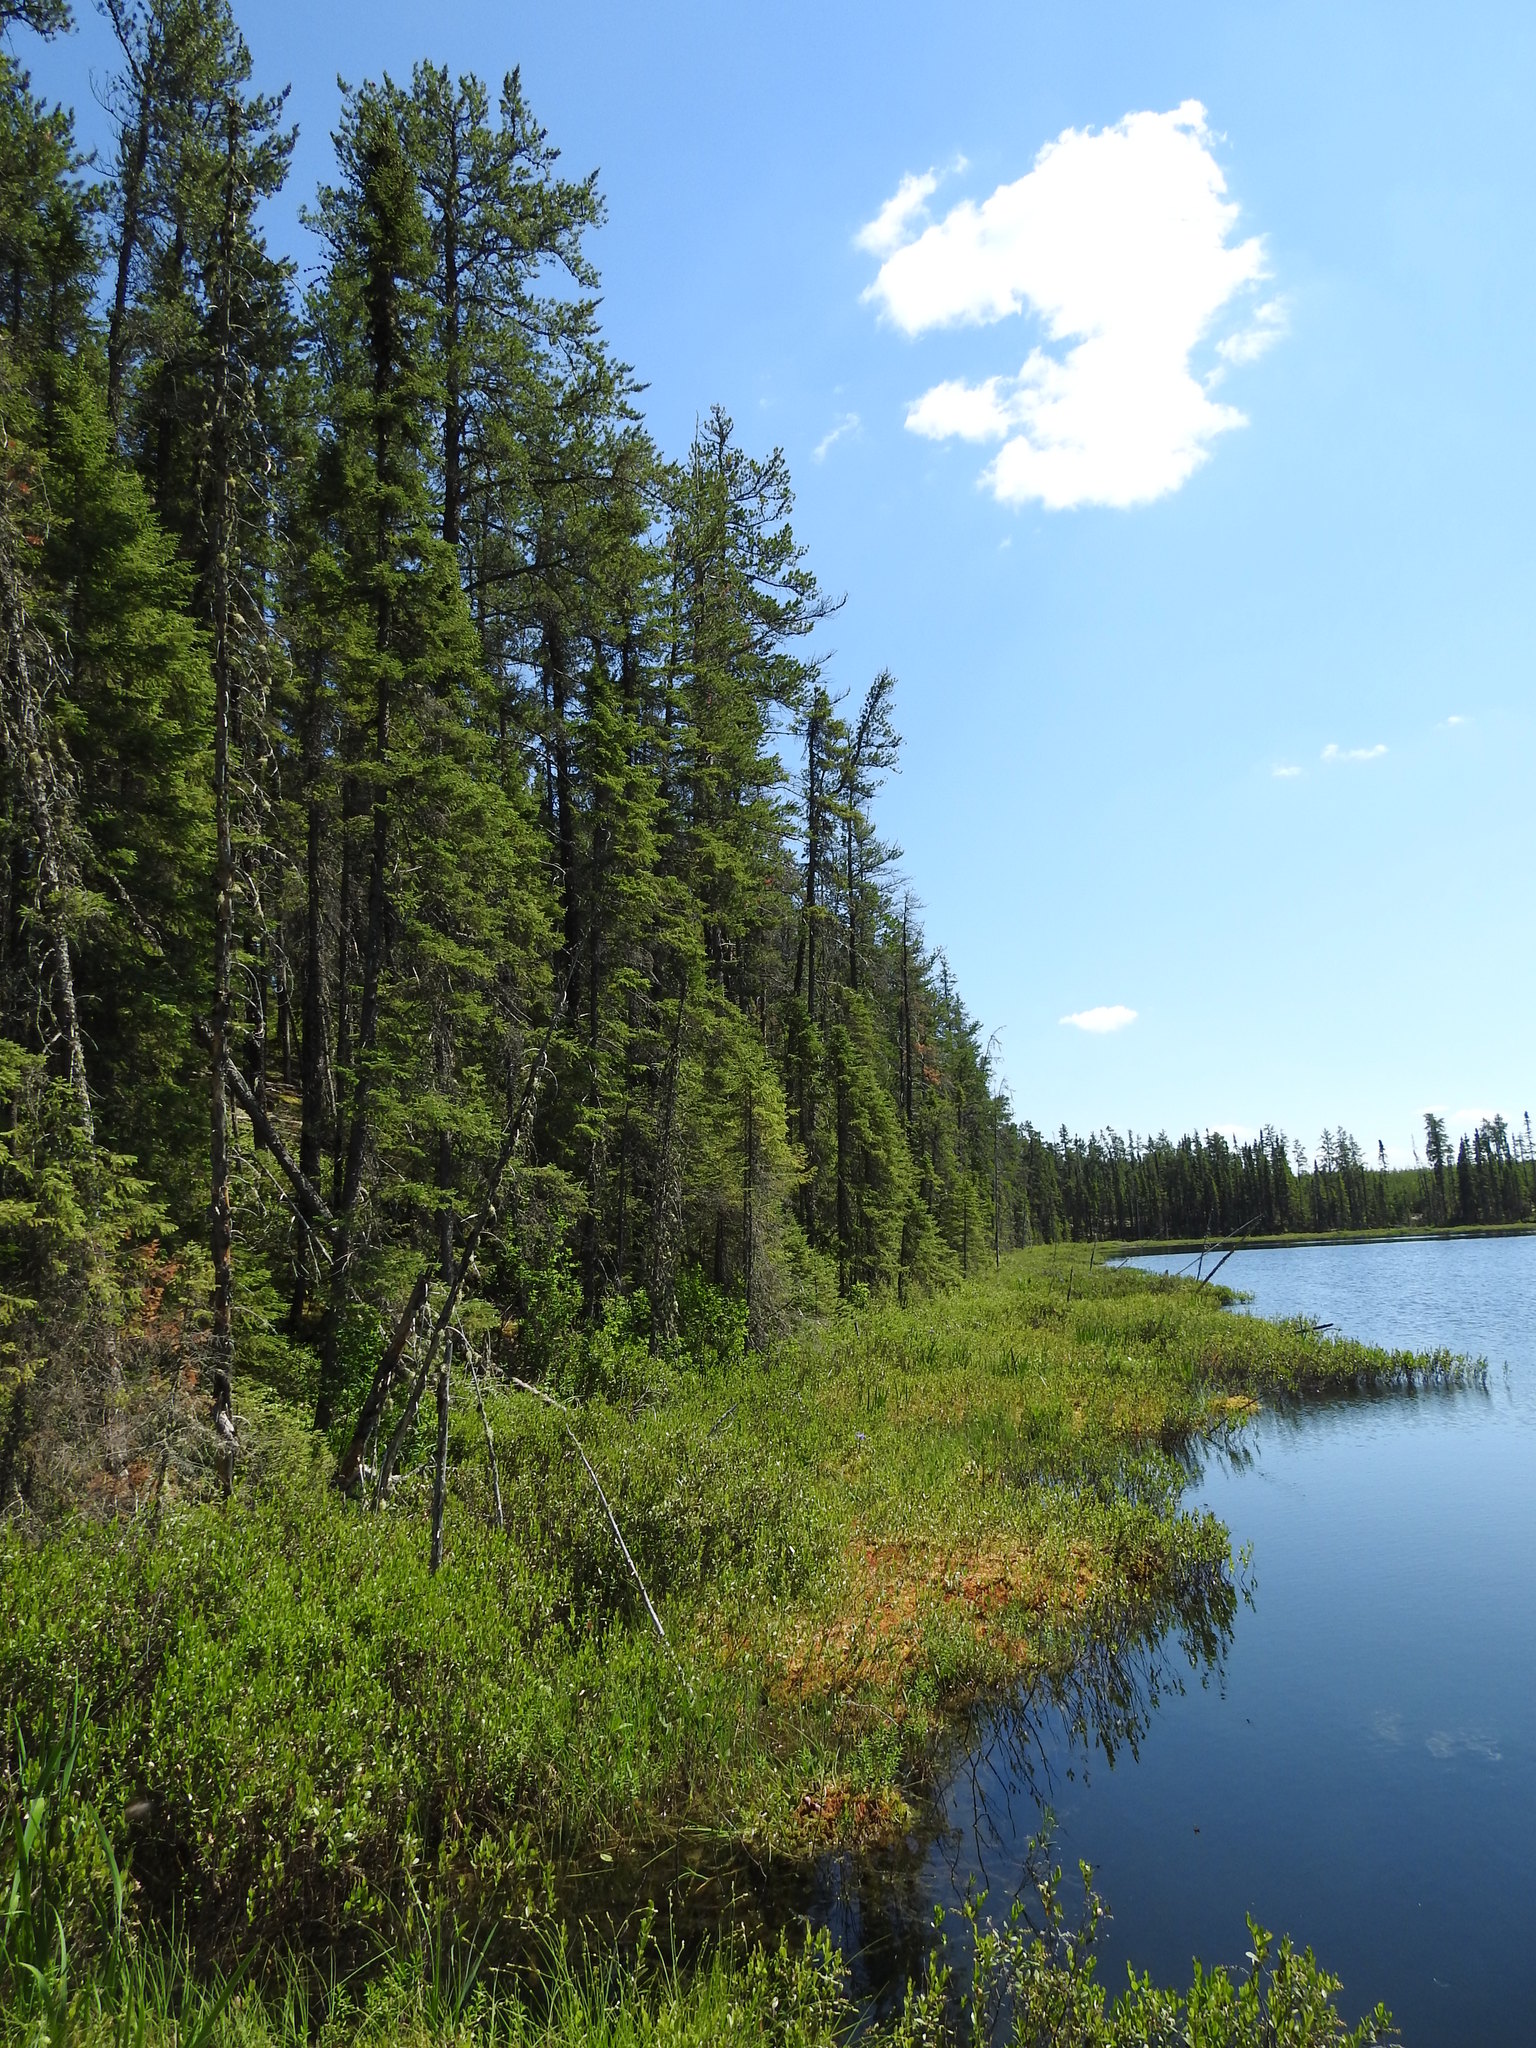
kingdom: Plantae
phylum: Tracheophyta
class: Pinopsida
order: Pinales
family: Pinaceae
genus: Pinus
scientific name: Pinus banksiana
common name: Jack pine
